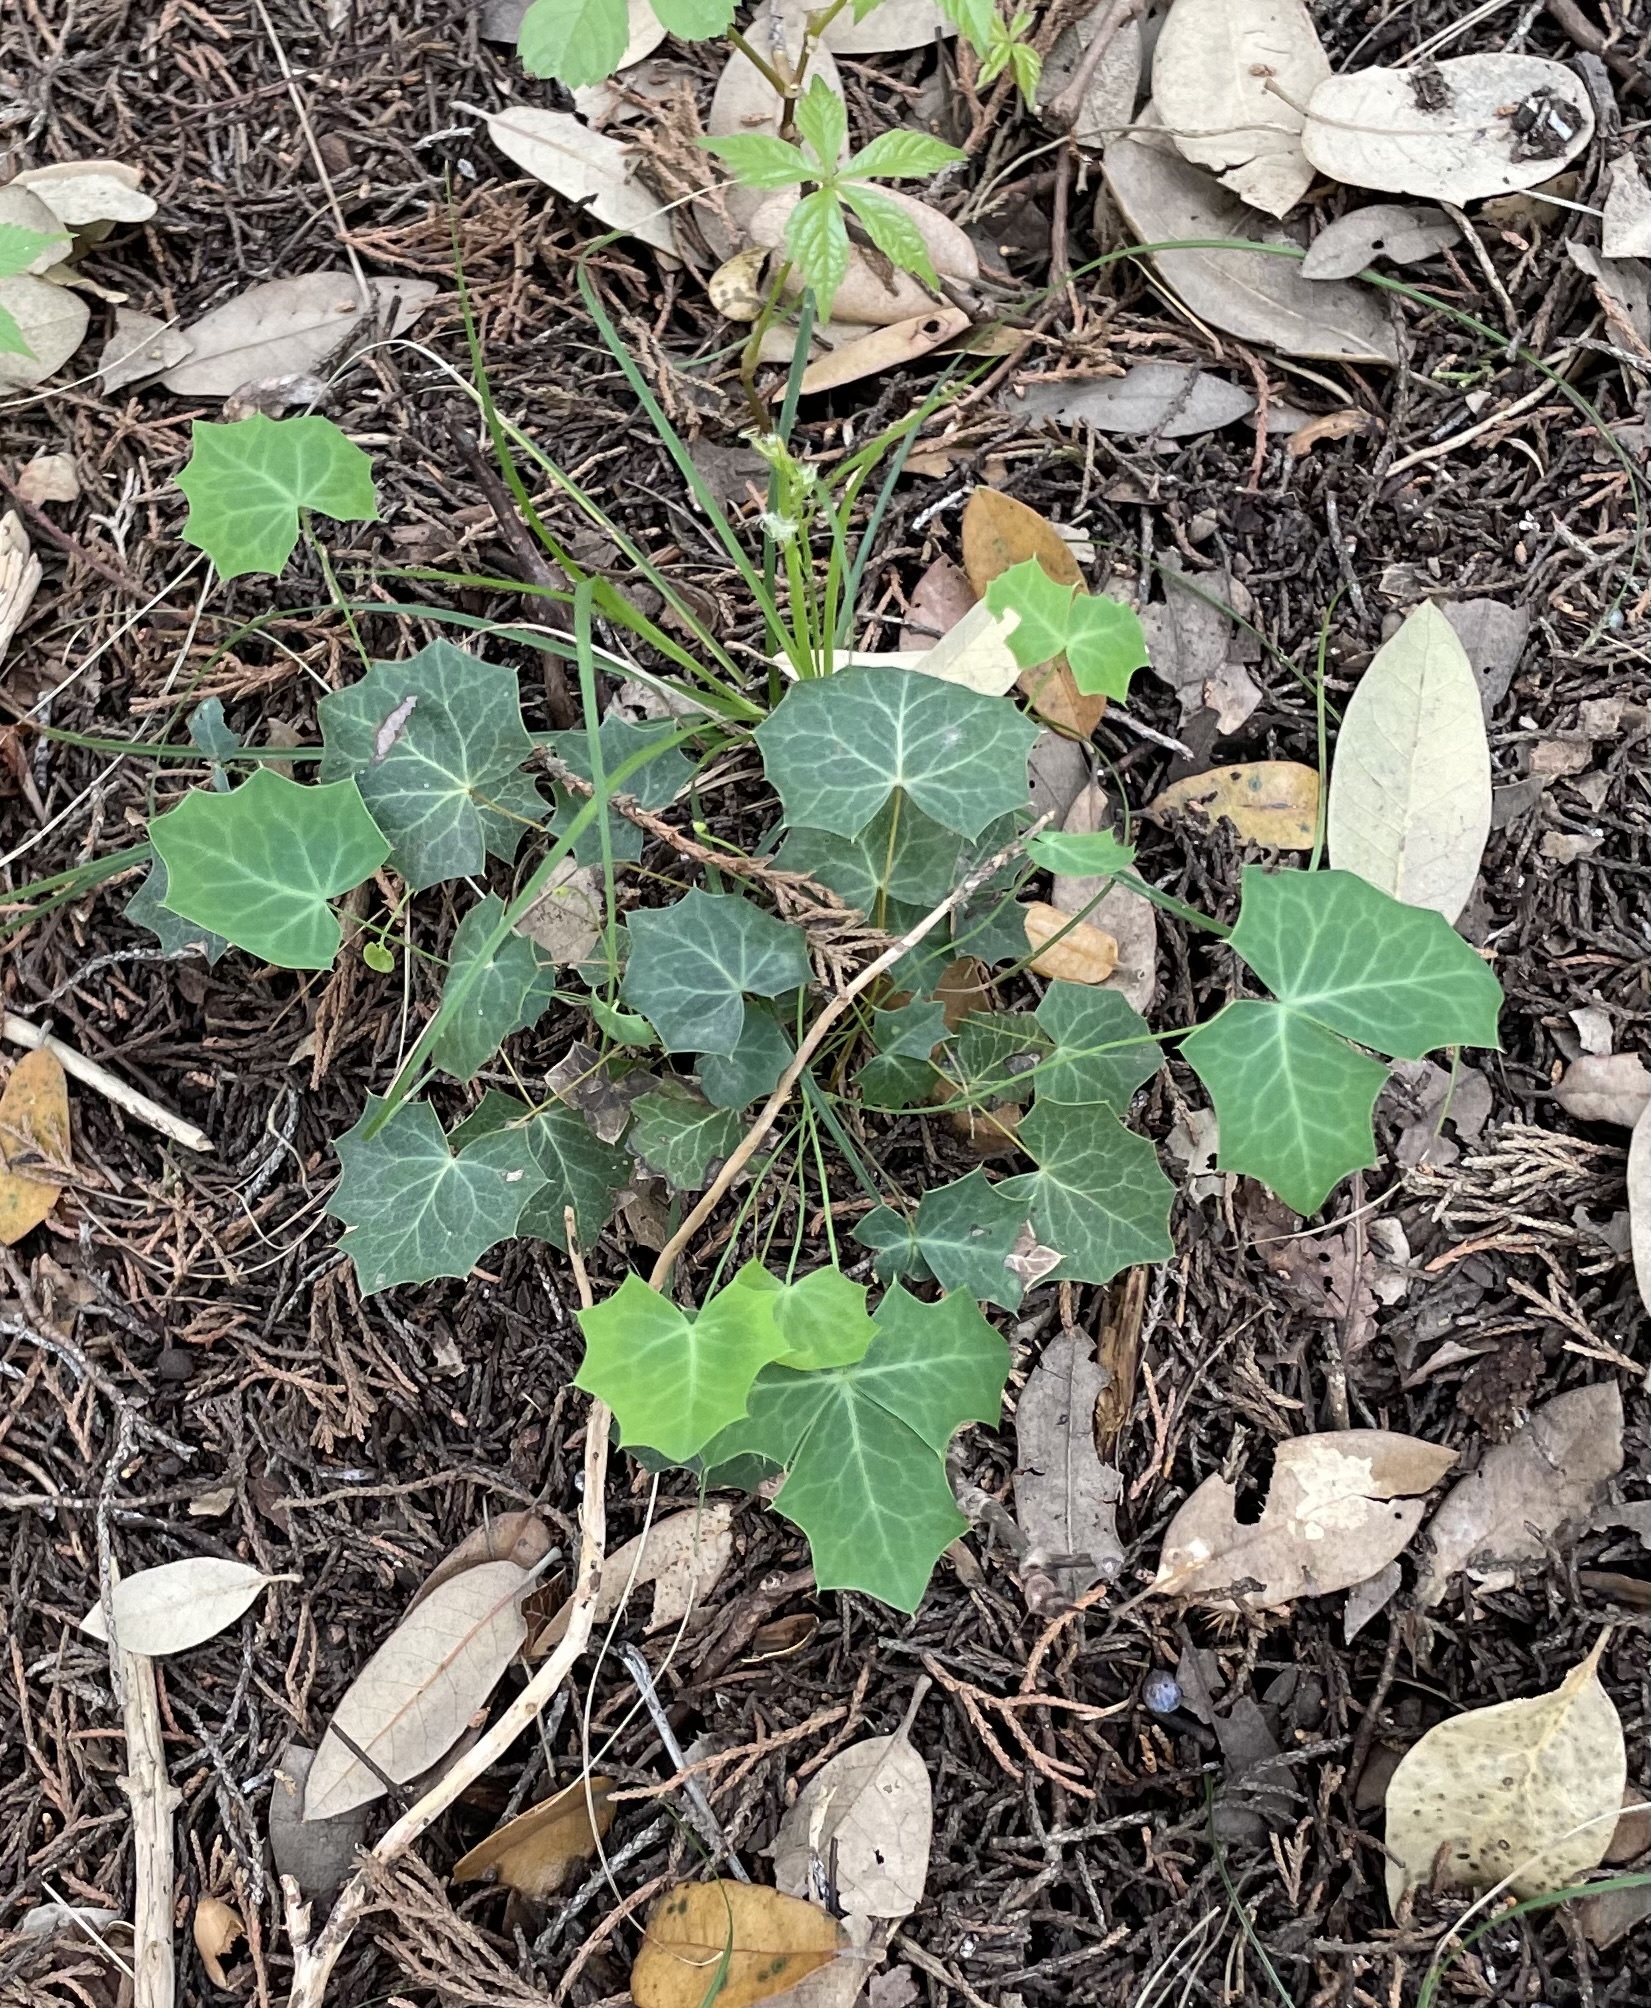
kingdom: Plantae
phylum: Tracheophyta
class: Magnoliopsida
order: Ranunculales
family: Berberidaceae
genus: Alloberberis
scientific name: Alloberberis trifoliolata
